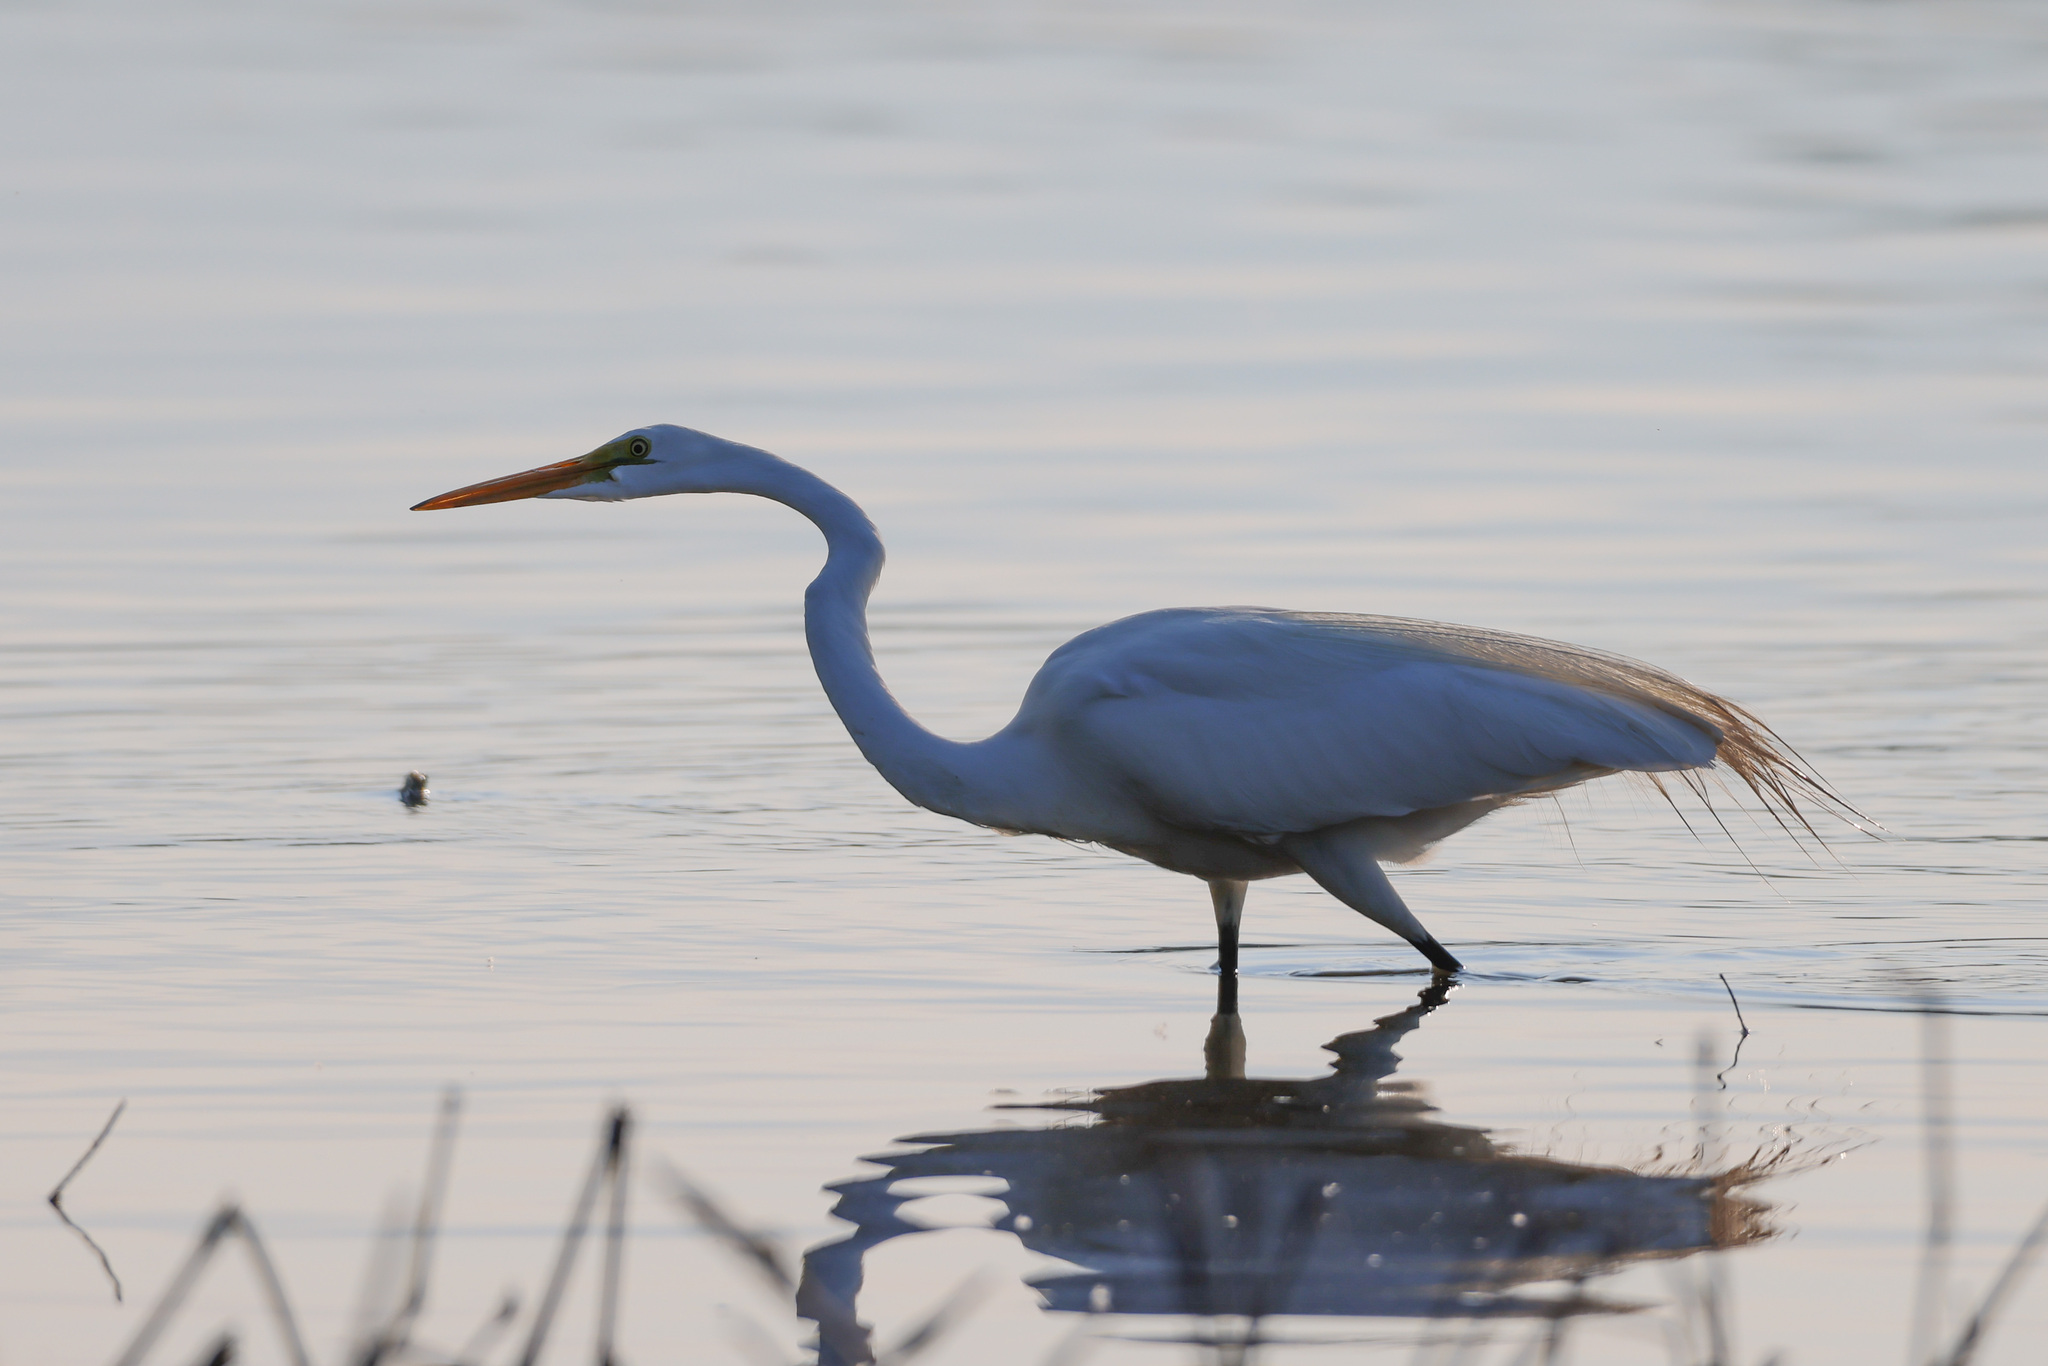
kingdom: Animalia
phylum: Chordata
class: Aves
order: Pelecaniformes
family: Ardeidae
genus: Ardea
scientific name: Ardea alba
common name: Great egret
